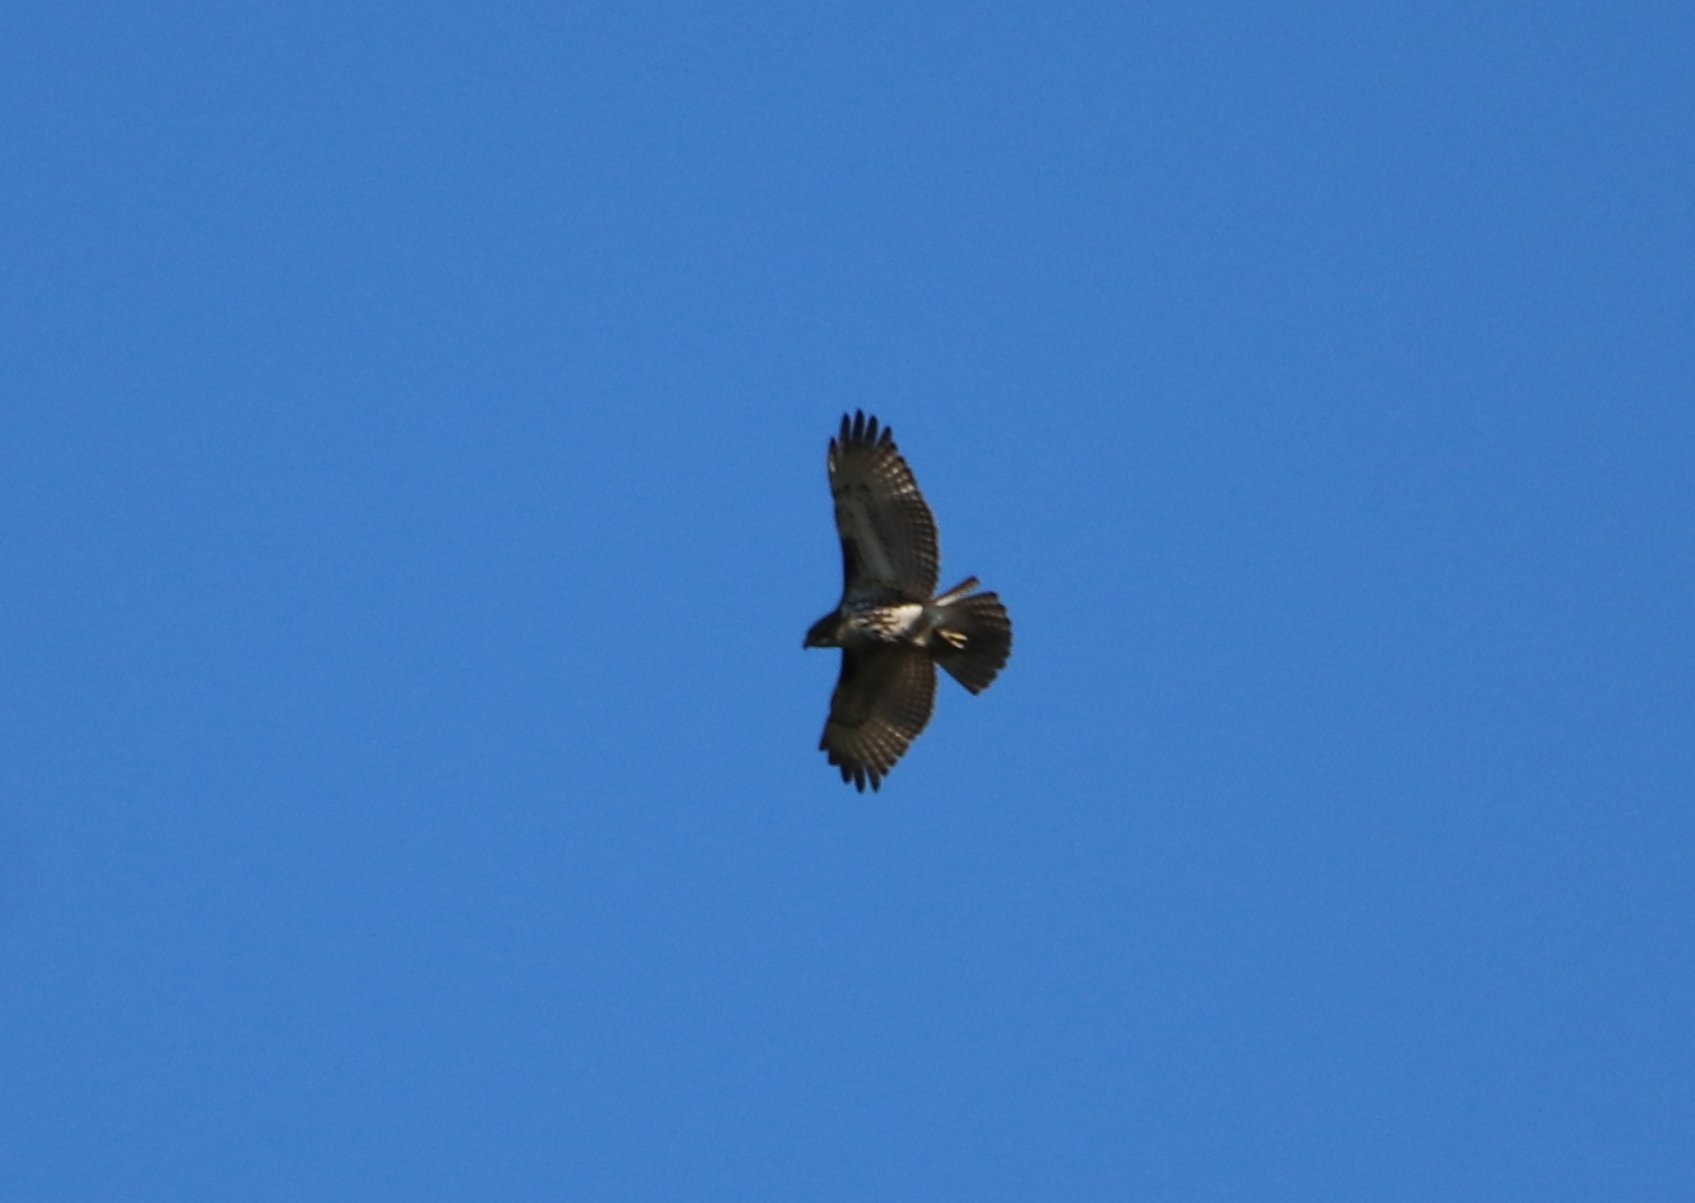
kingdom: Animalia
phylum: Chordata
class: Aves
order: Accipitriformes
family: Accipitridae
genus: Buteo
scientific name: Buteo jamaicensis
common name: Red-tailed hawk
